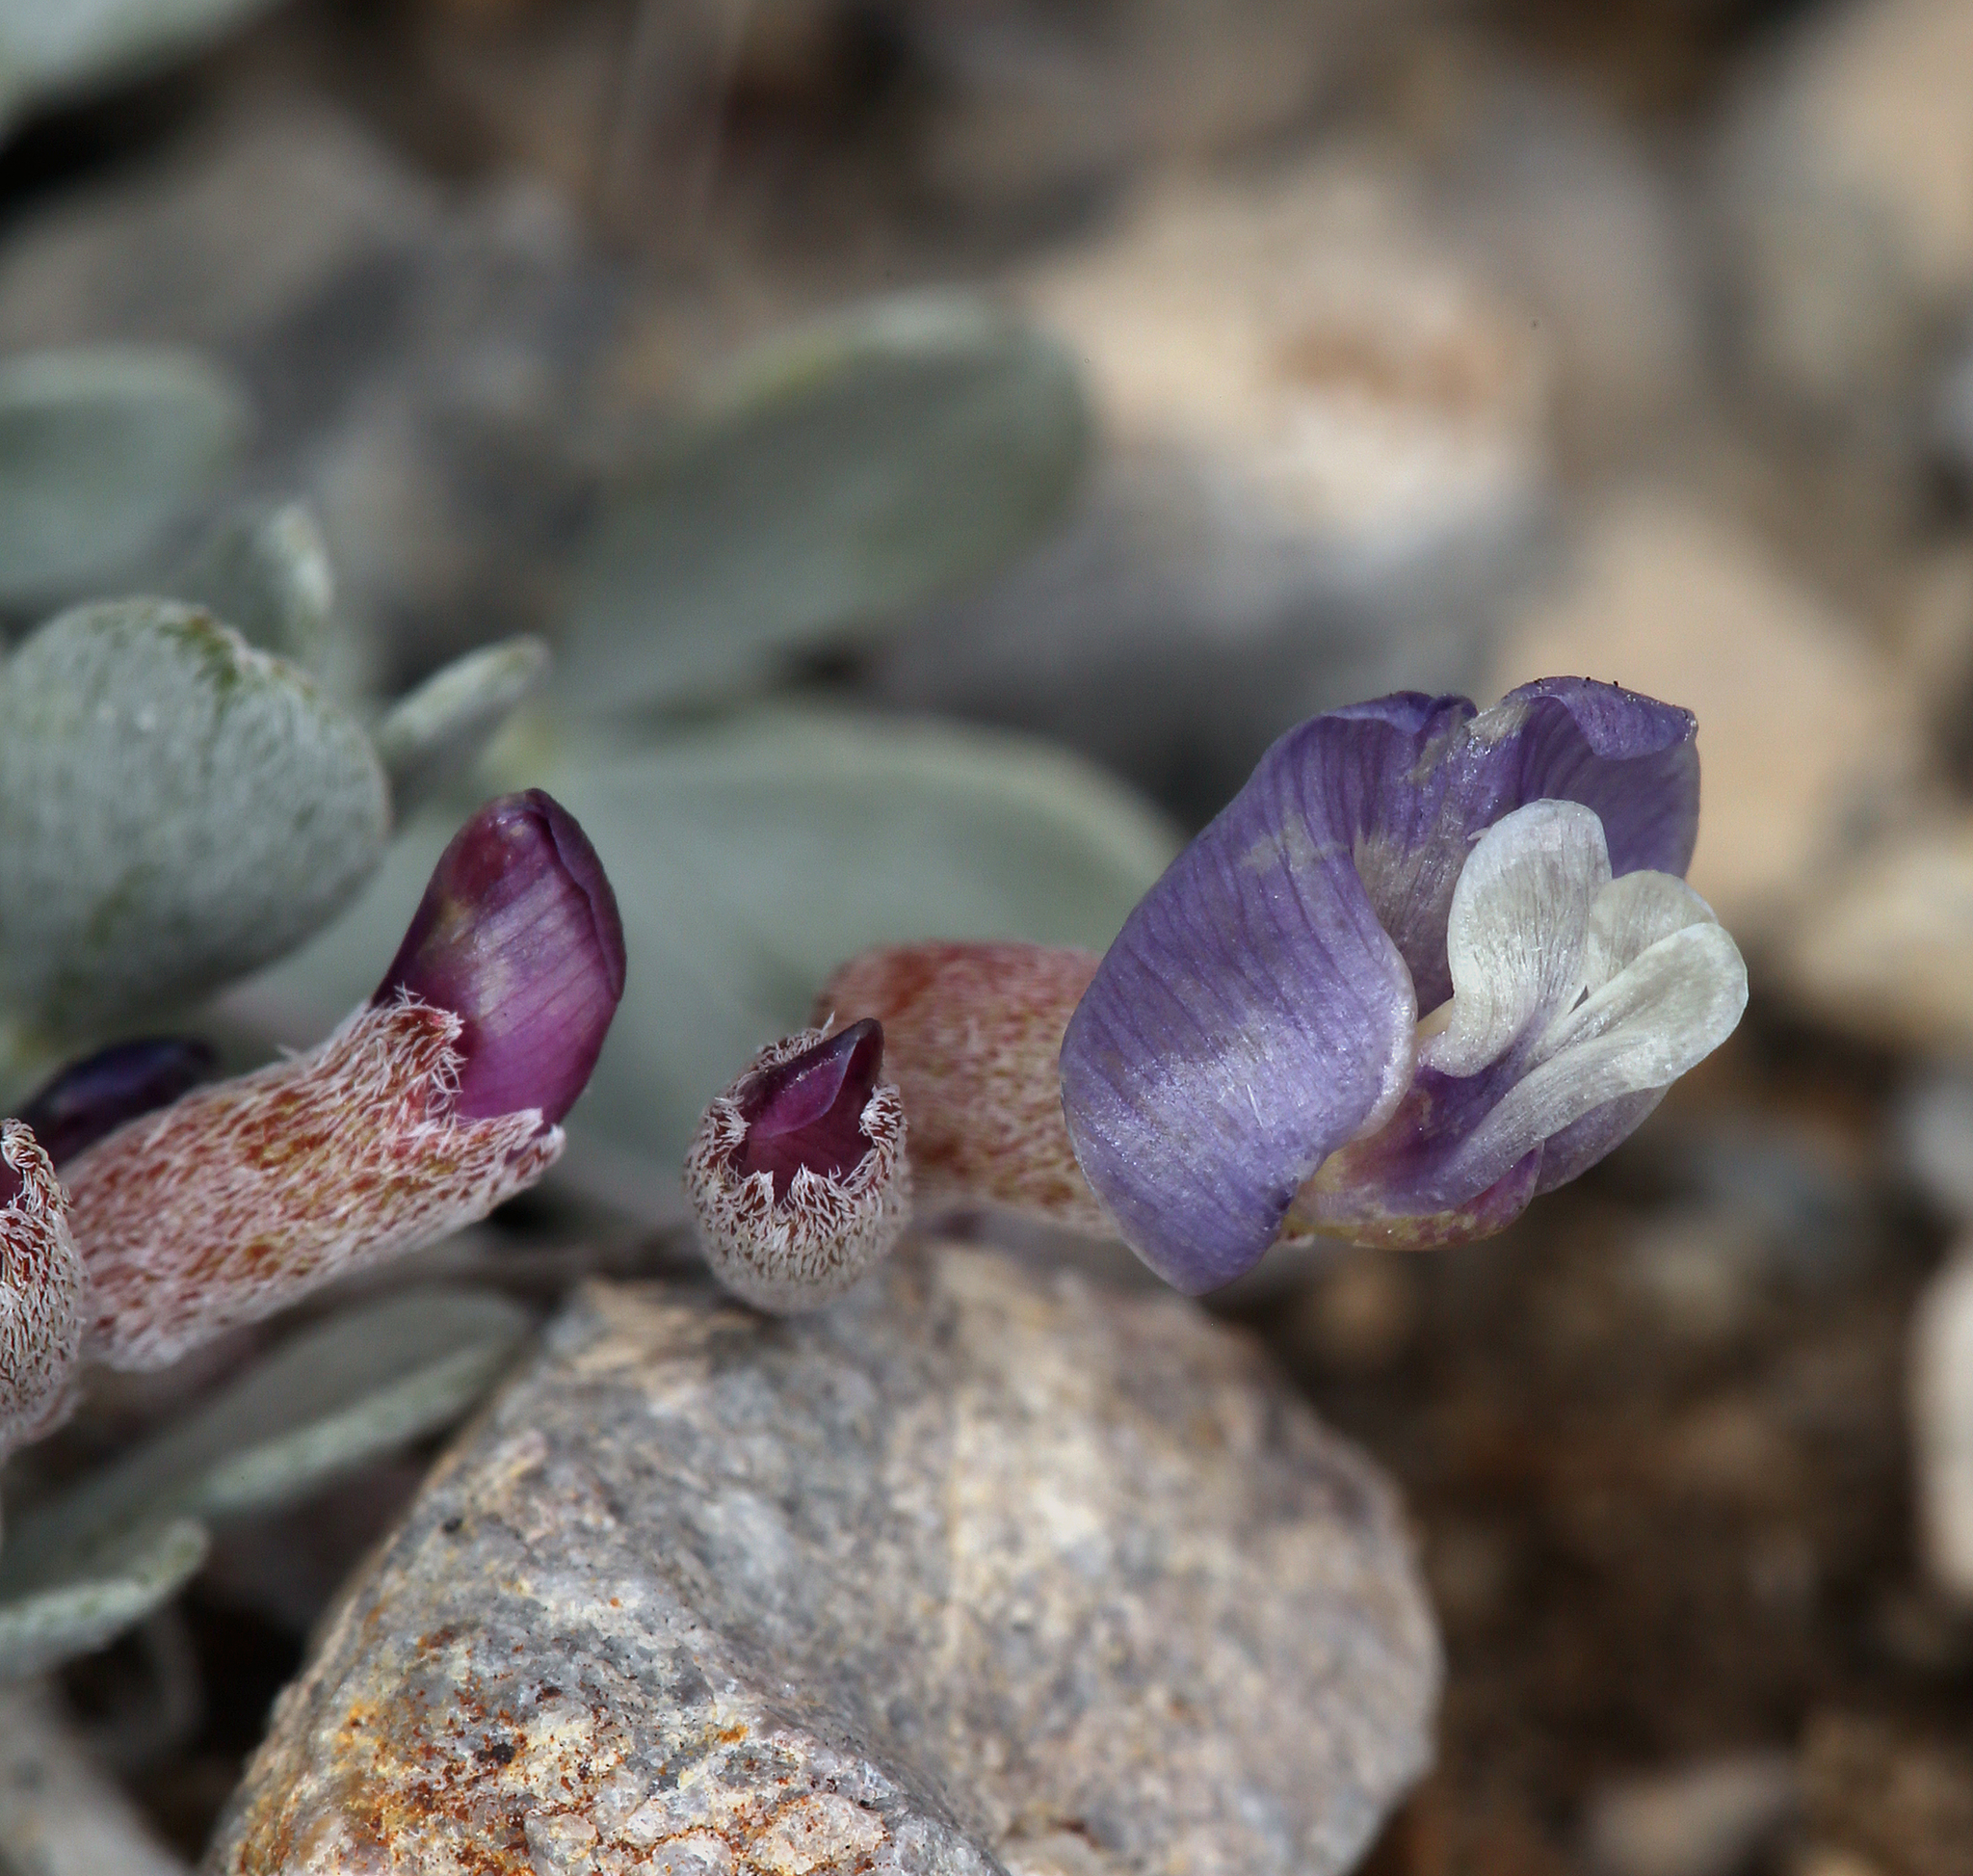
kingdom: Plantae
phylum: Tracheophyta
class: Magnoliopsida
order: Fabales
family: Fabaceae
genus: Astragalus
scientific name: Astragalus calycosus
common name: King's milkvetch
